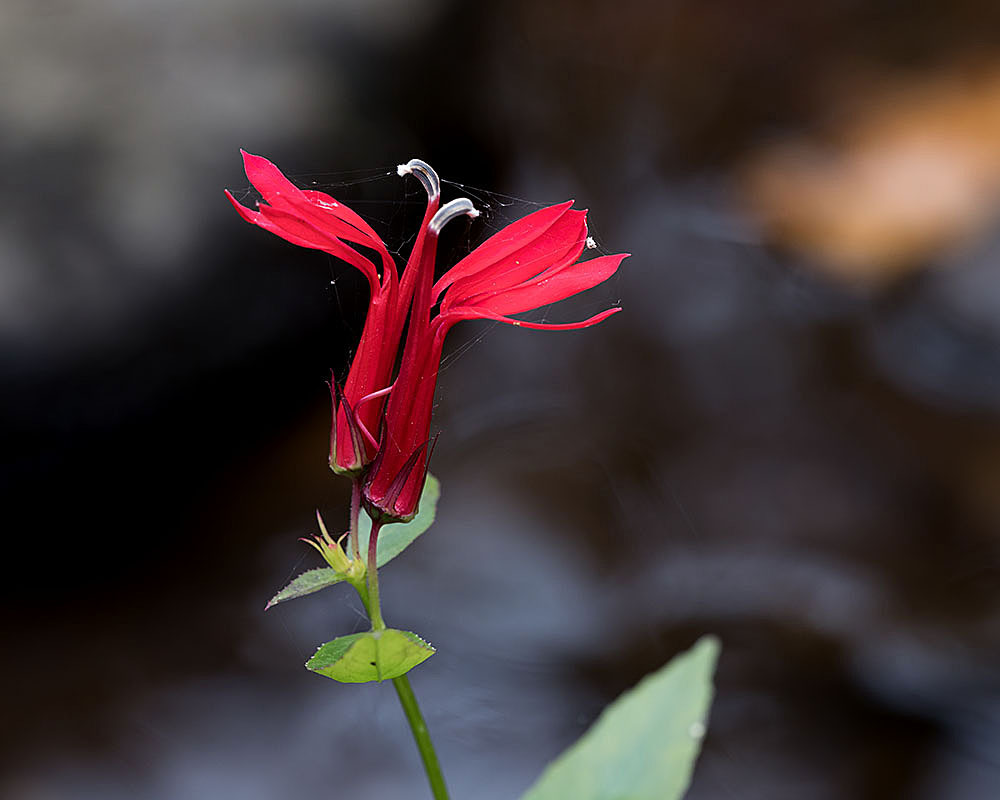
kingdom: Plantae
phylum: Tracheophyta
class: Magnoliopsida
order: Asterales
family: Campanulaceae
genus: Lobelia
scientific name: Lobelia cardinalis
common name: Cardinal flower
